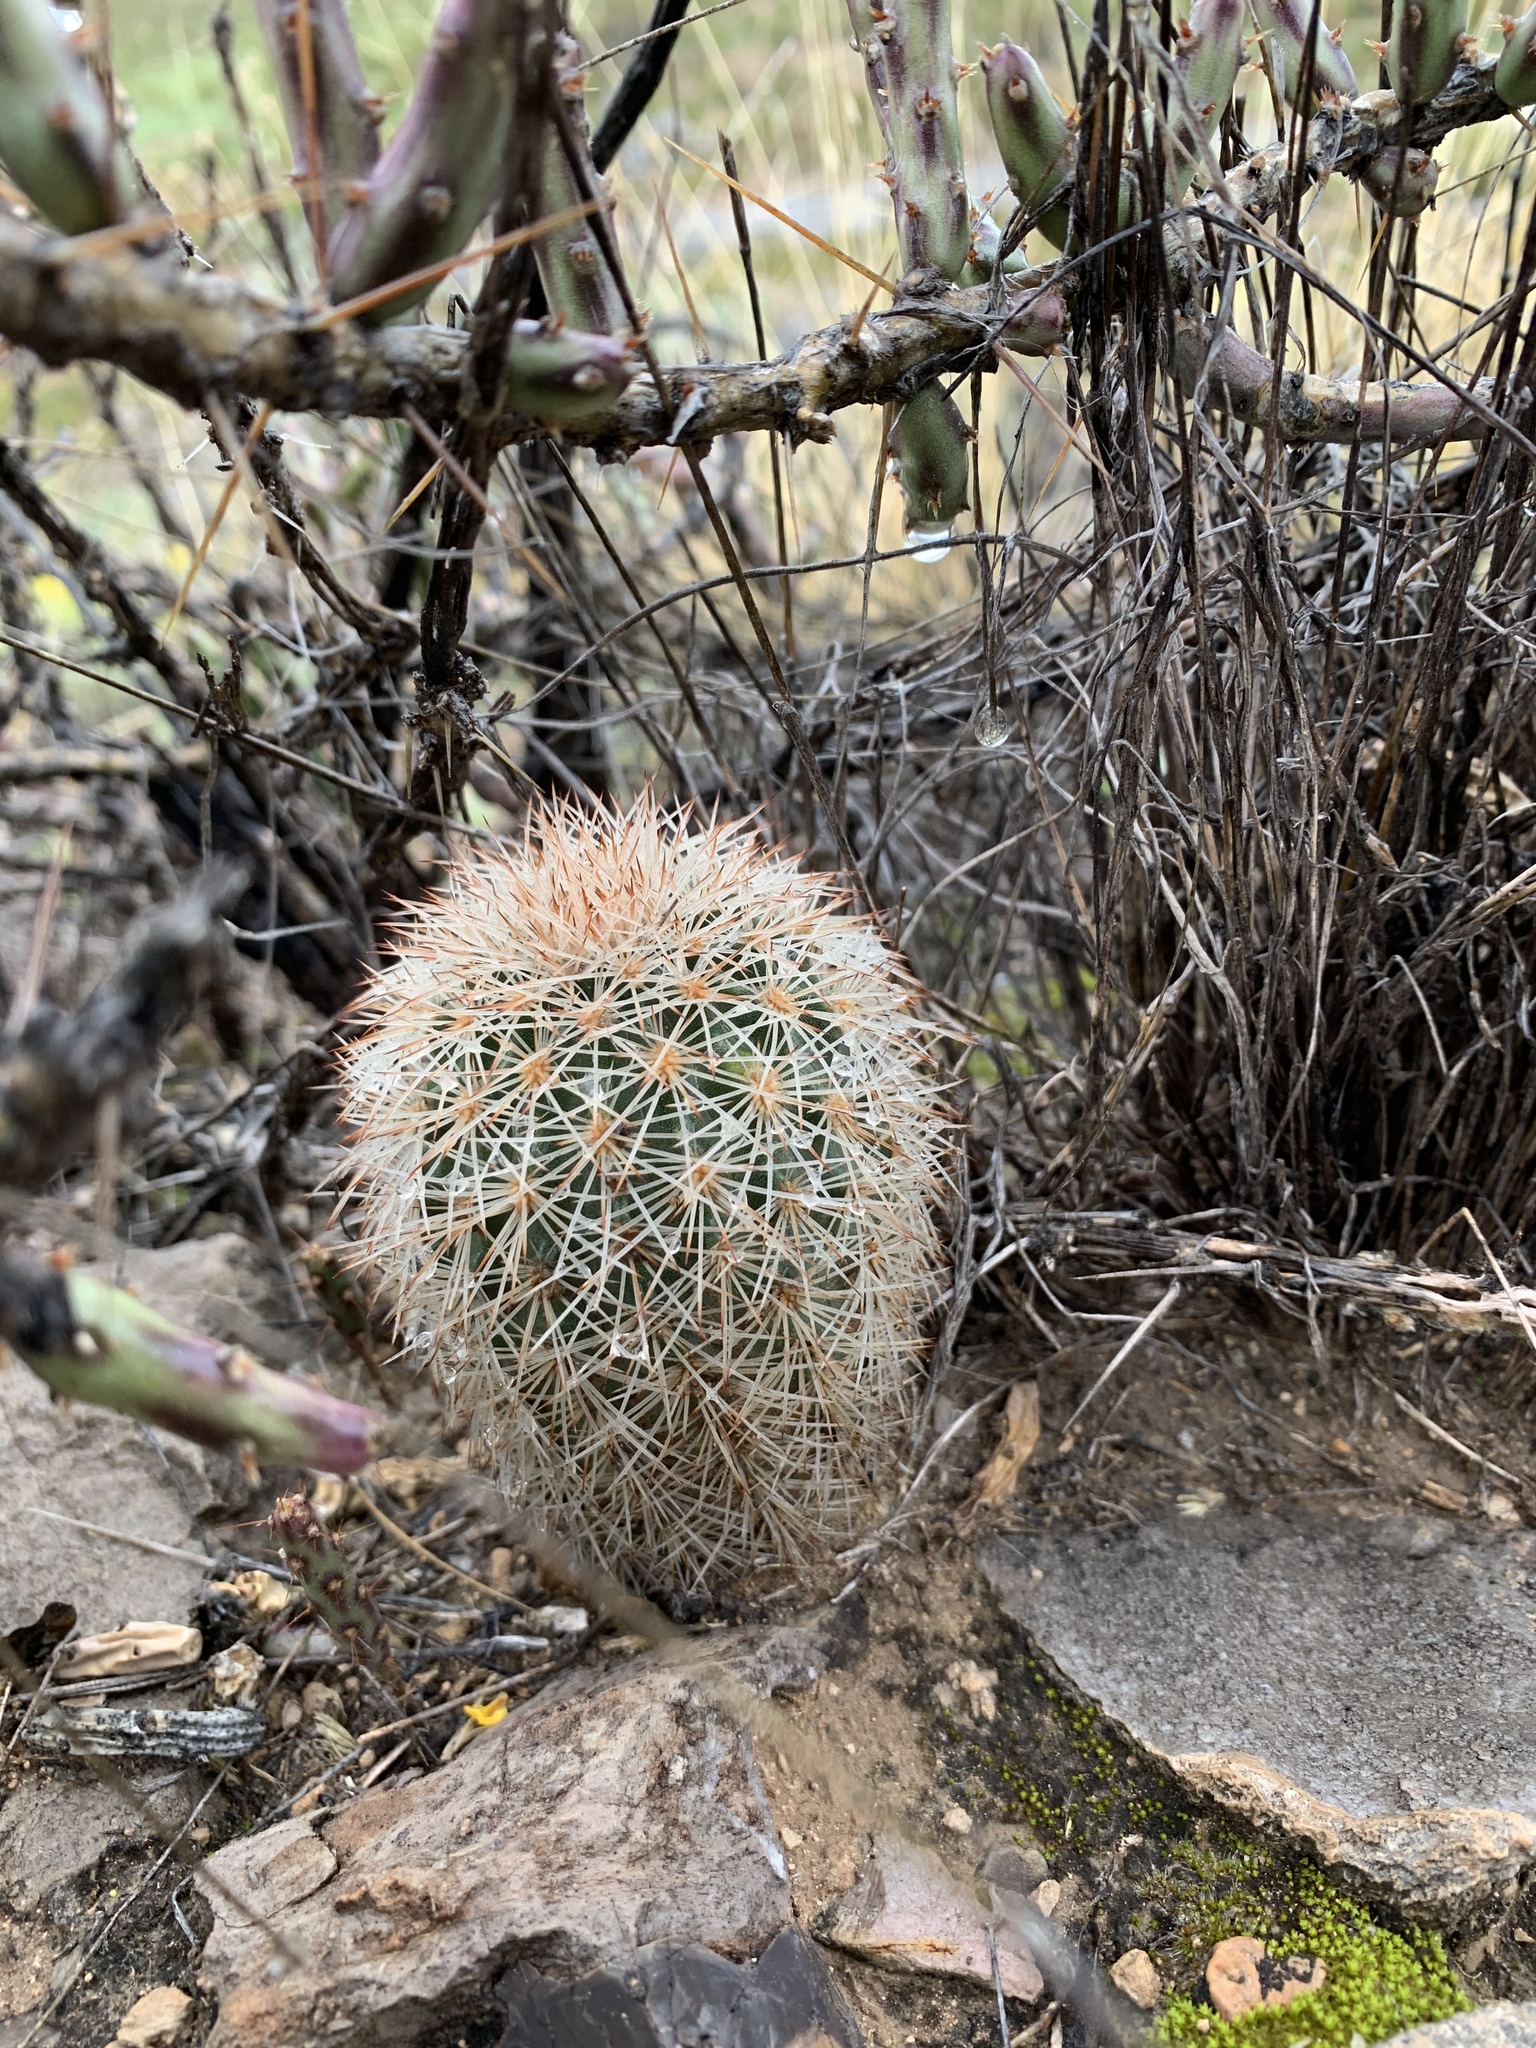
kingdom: Plantae
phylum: Tracheophyta
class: Magnoliopsida
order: Caryophyllales
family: Cactaceae
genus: Echinocereus
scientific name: Echinocereus dasyacanthus
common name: Spiny hedgehog cactus
